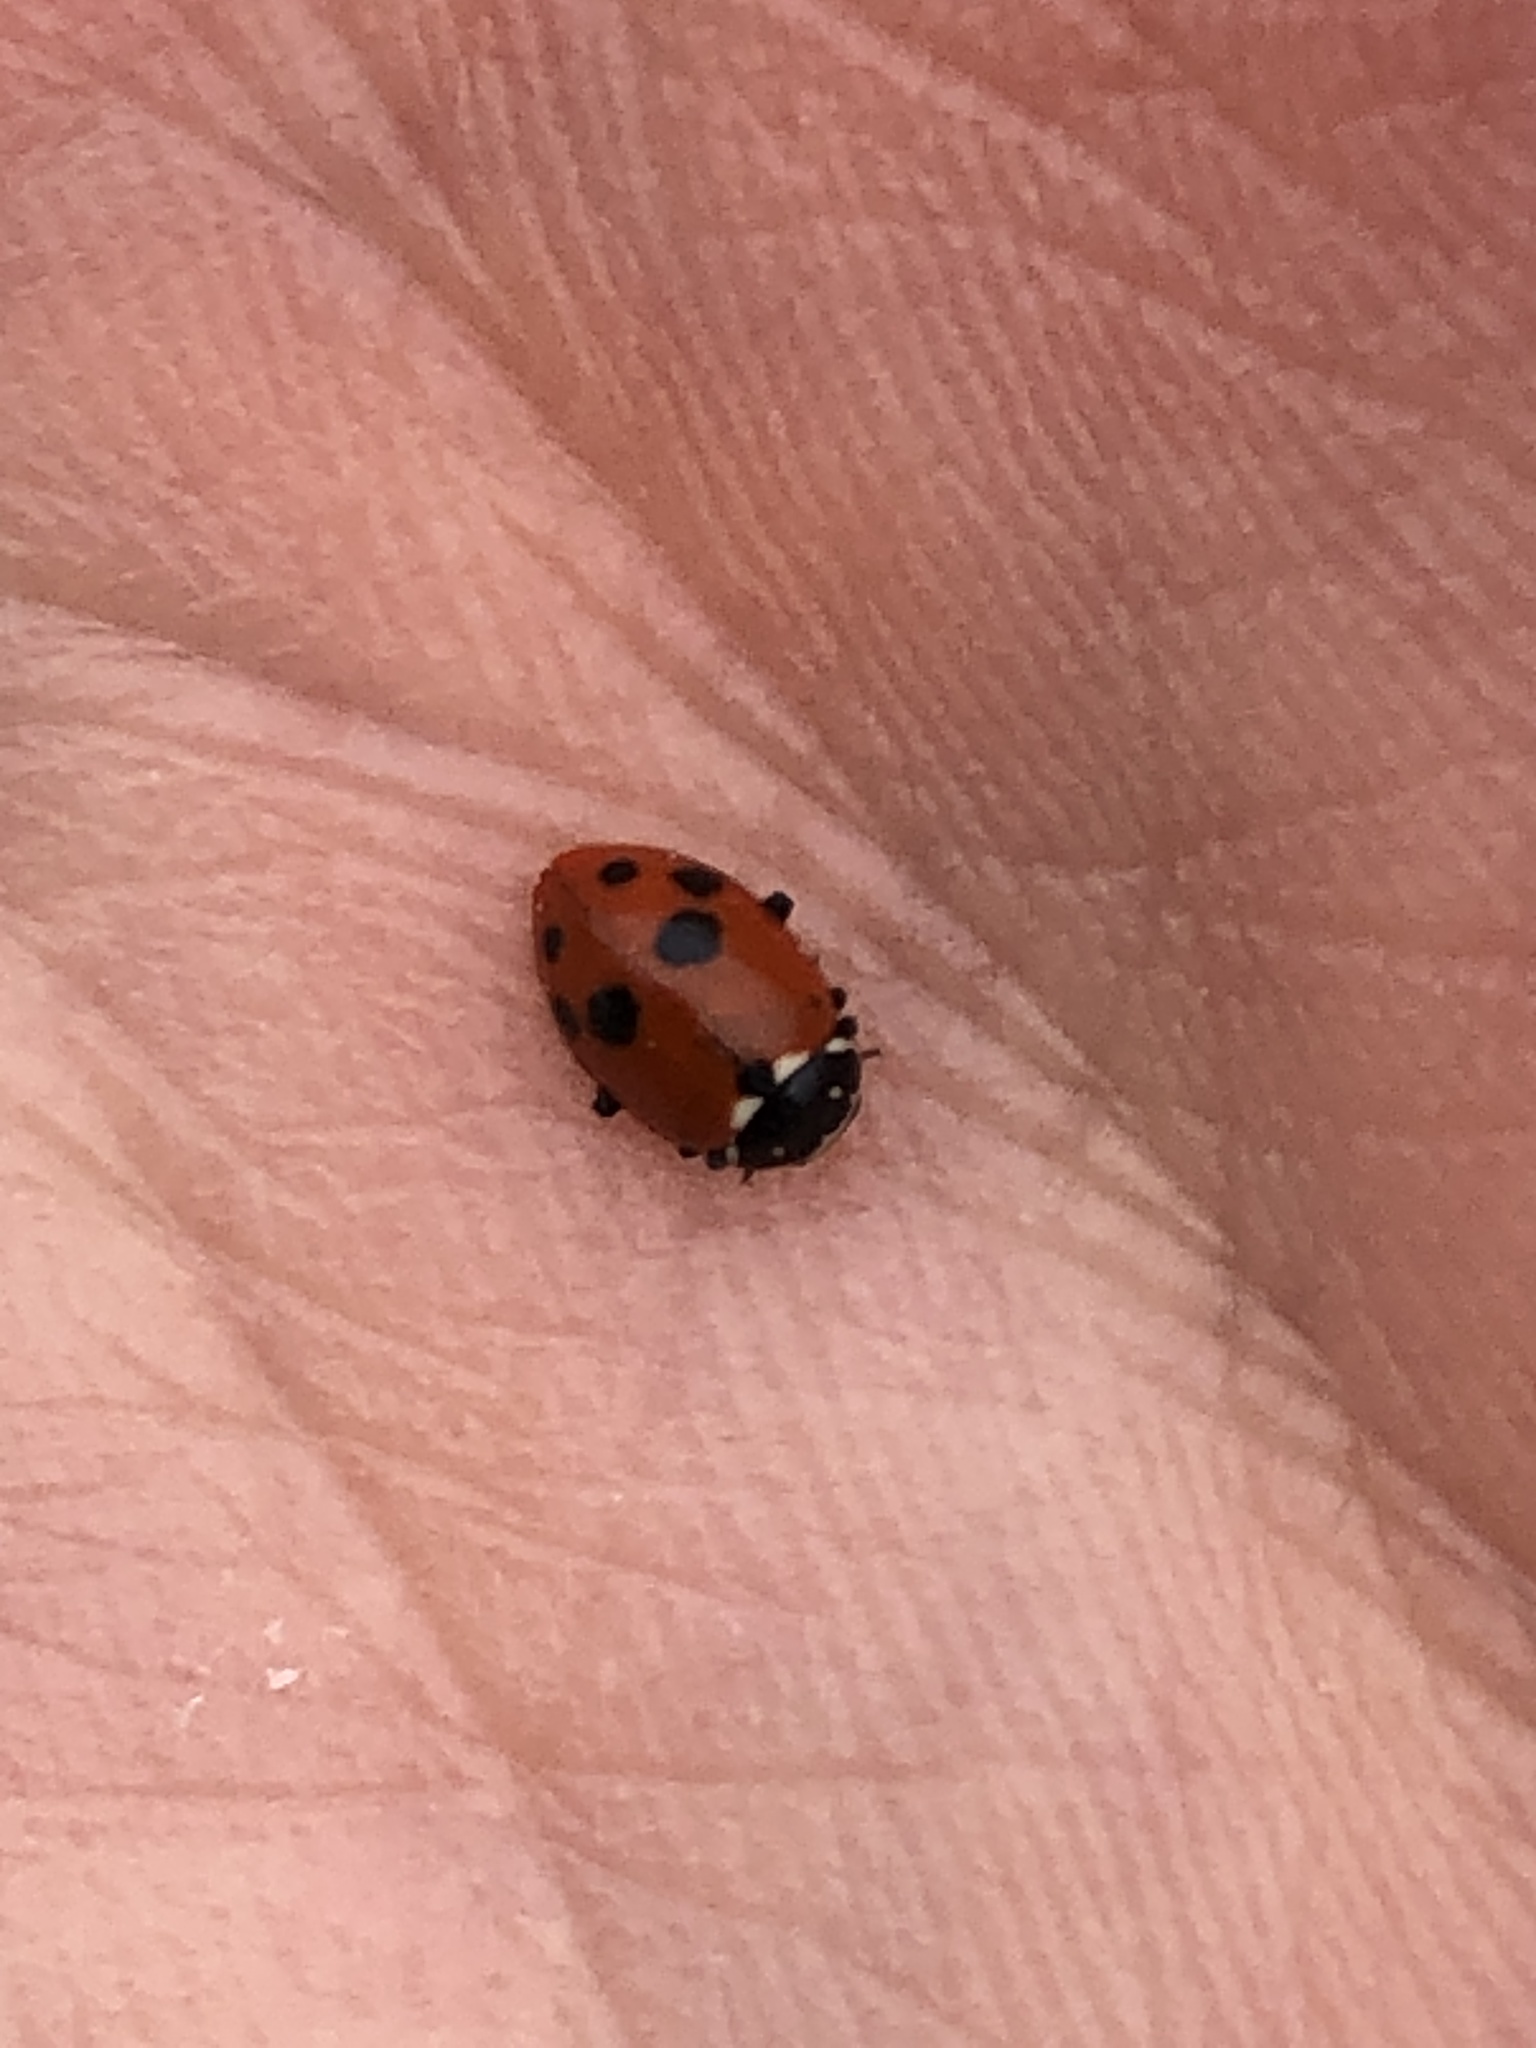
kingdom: Animalia
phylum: Arthropoda
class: Insecta
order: Coleoptera
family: Coccinellidae
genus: Hippodamia
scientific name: Hippodamia variegata
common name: Ladybird beetle
